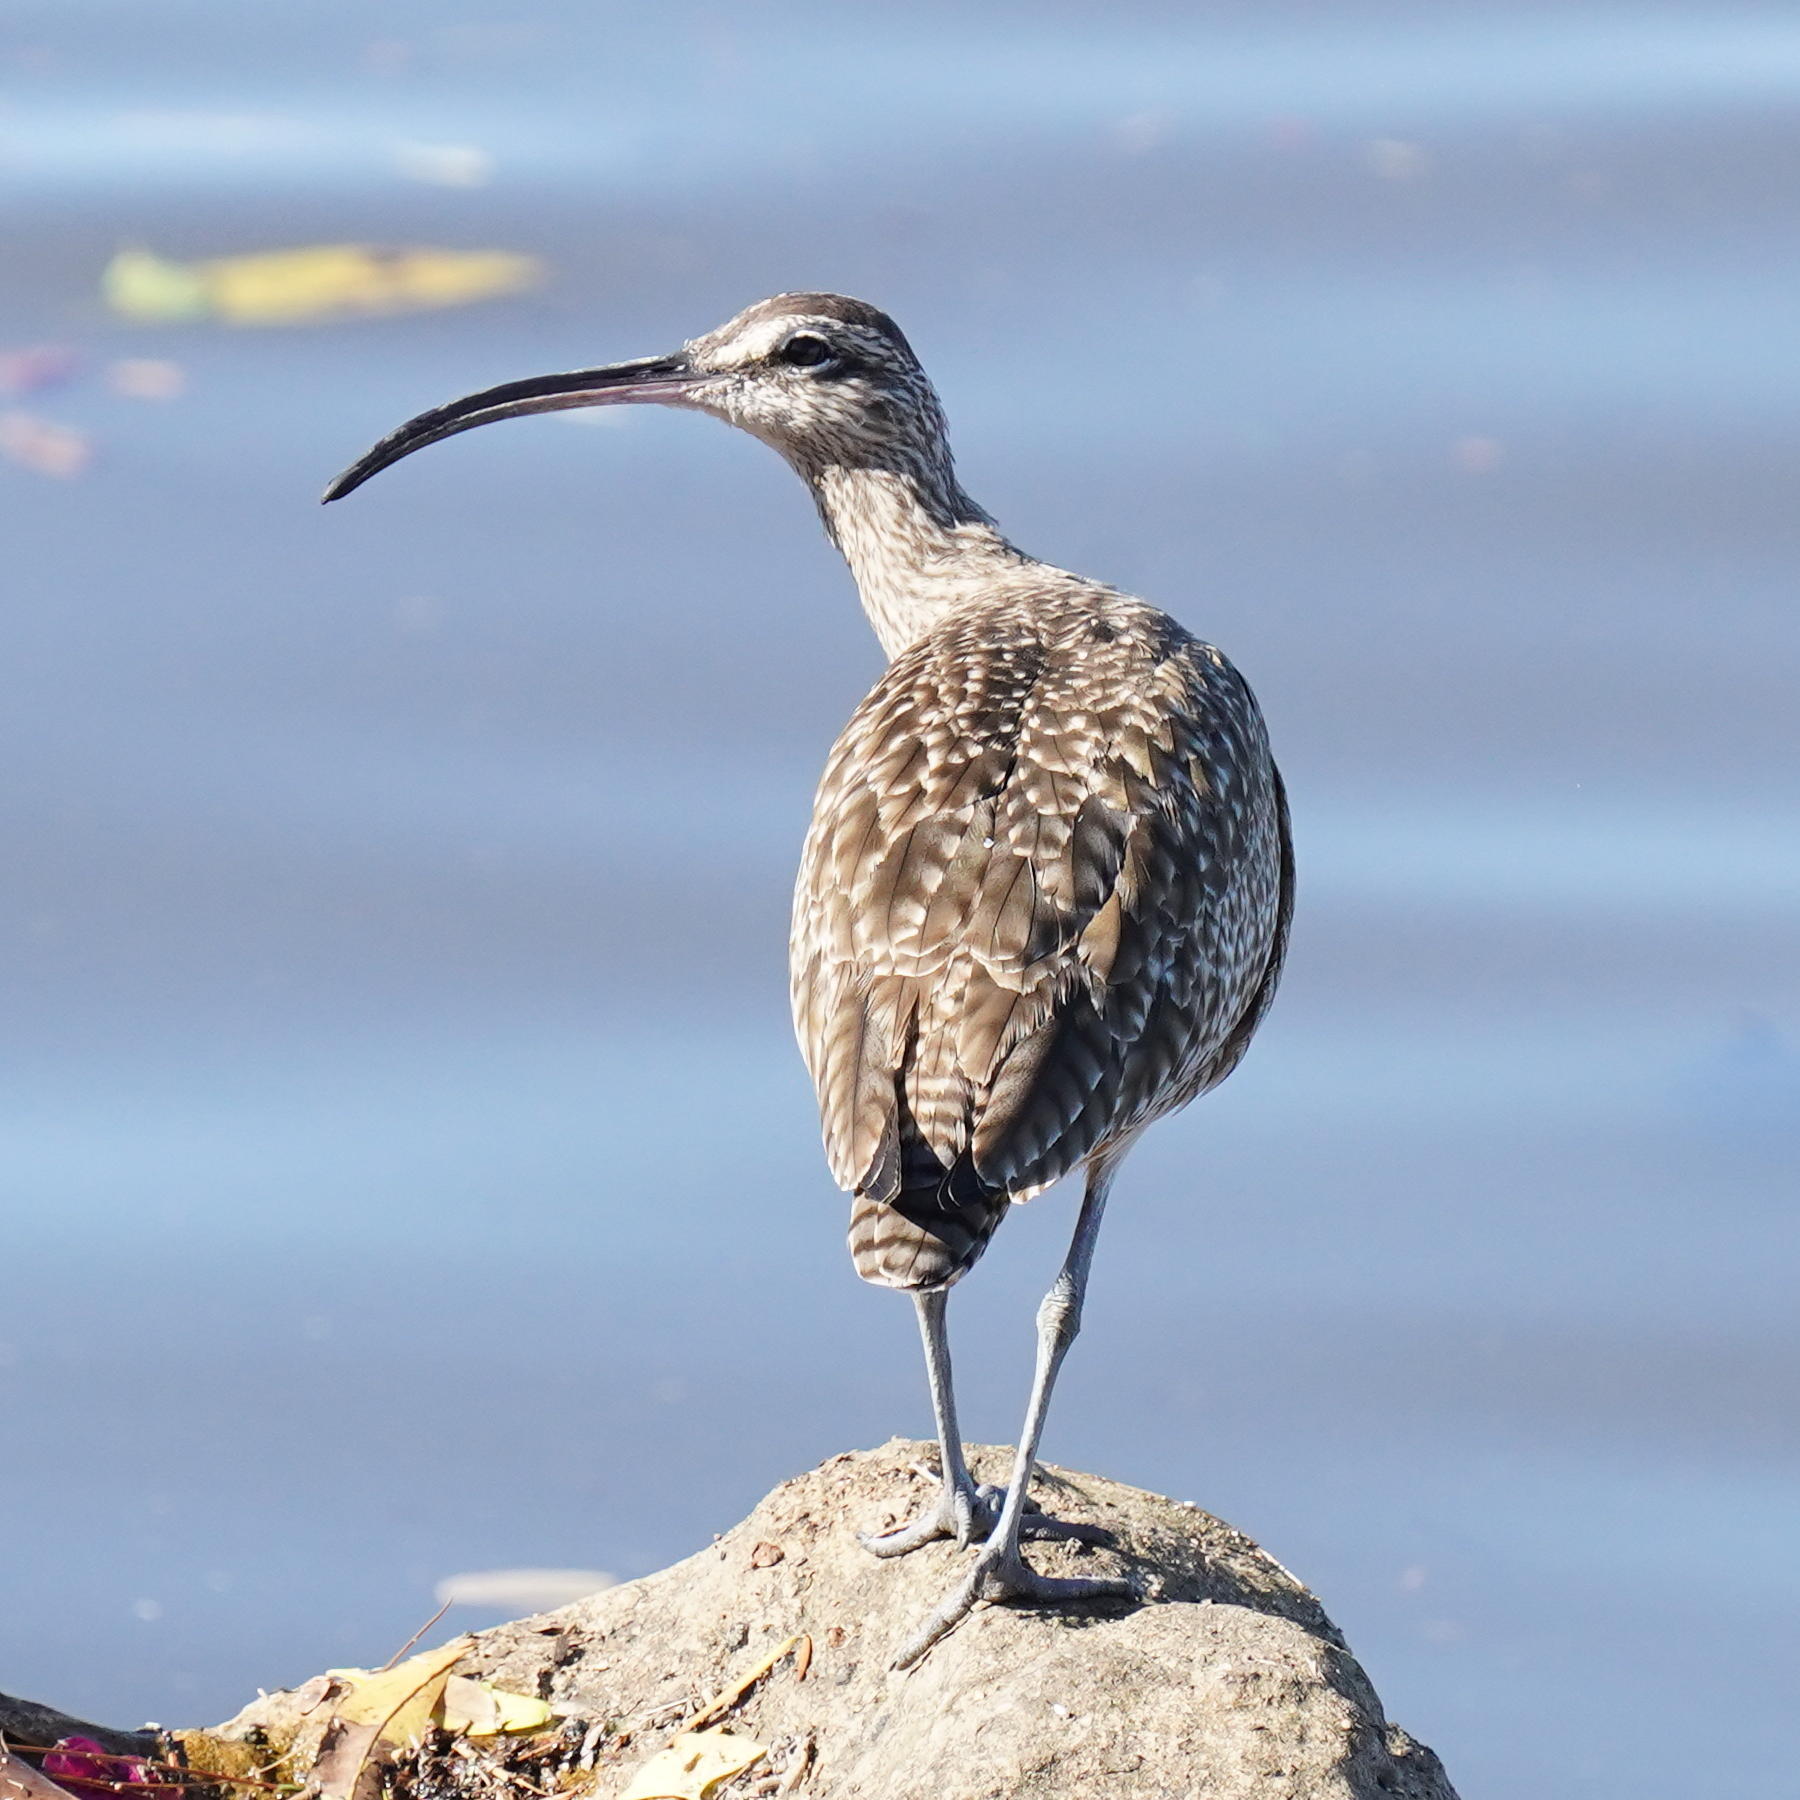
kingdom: Animalia
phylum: Chordata
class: Aves
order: Charadriiformes
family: Scolopacidae
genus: Numenius
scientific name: Numenius phaeopus
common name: Whimbrel
